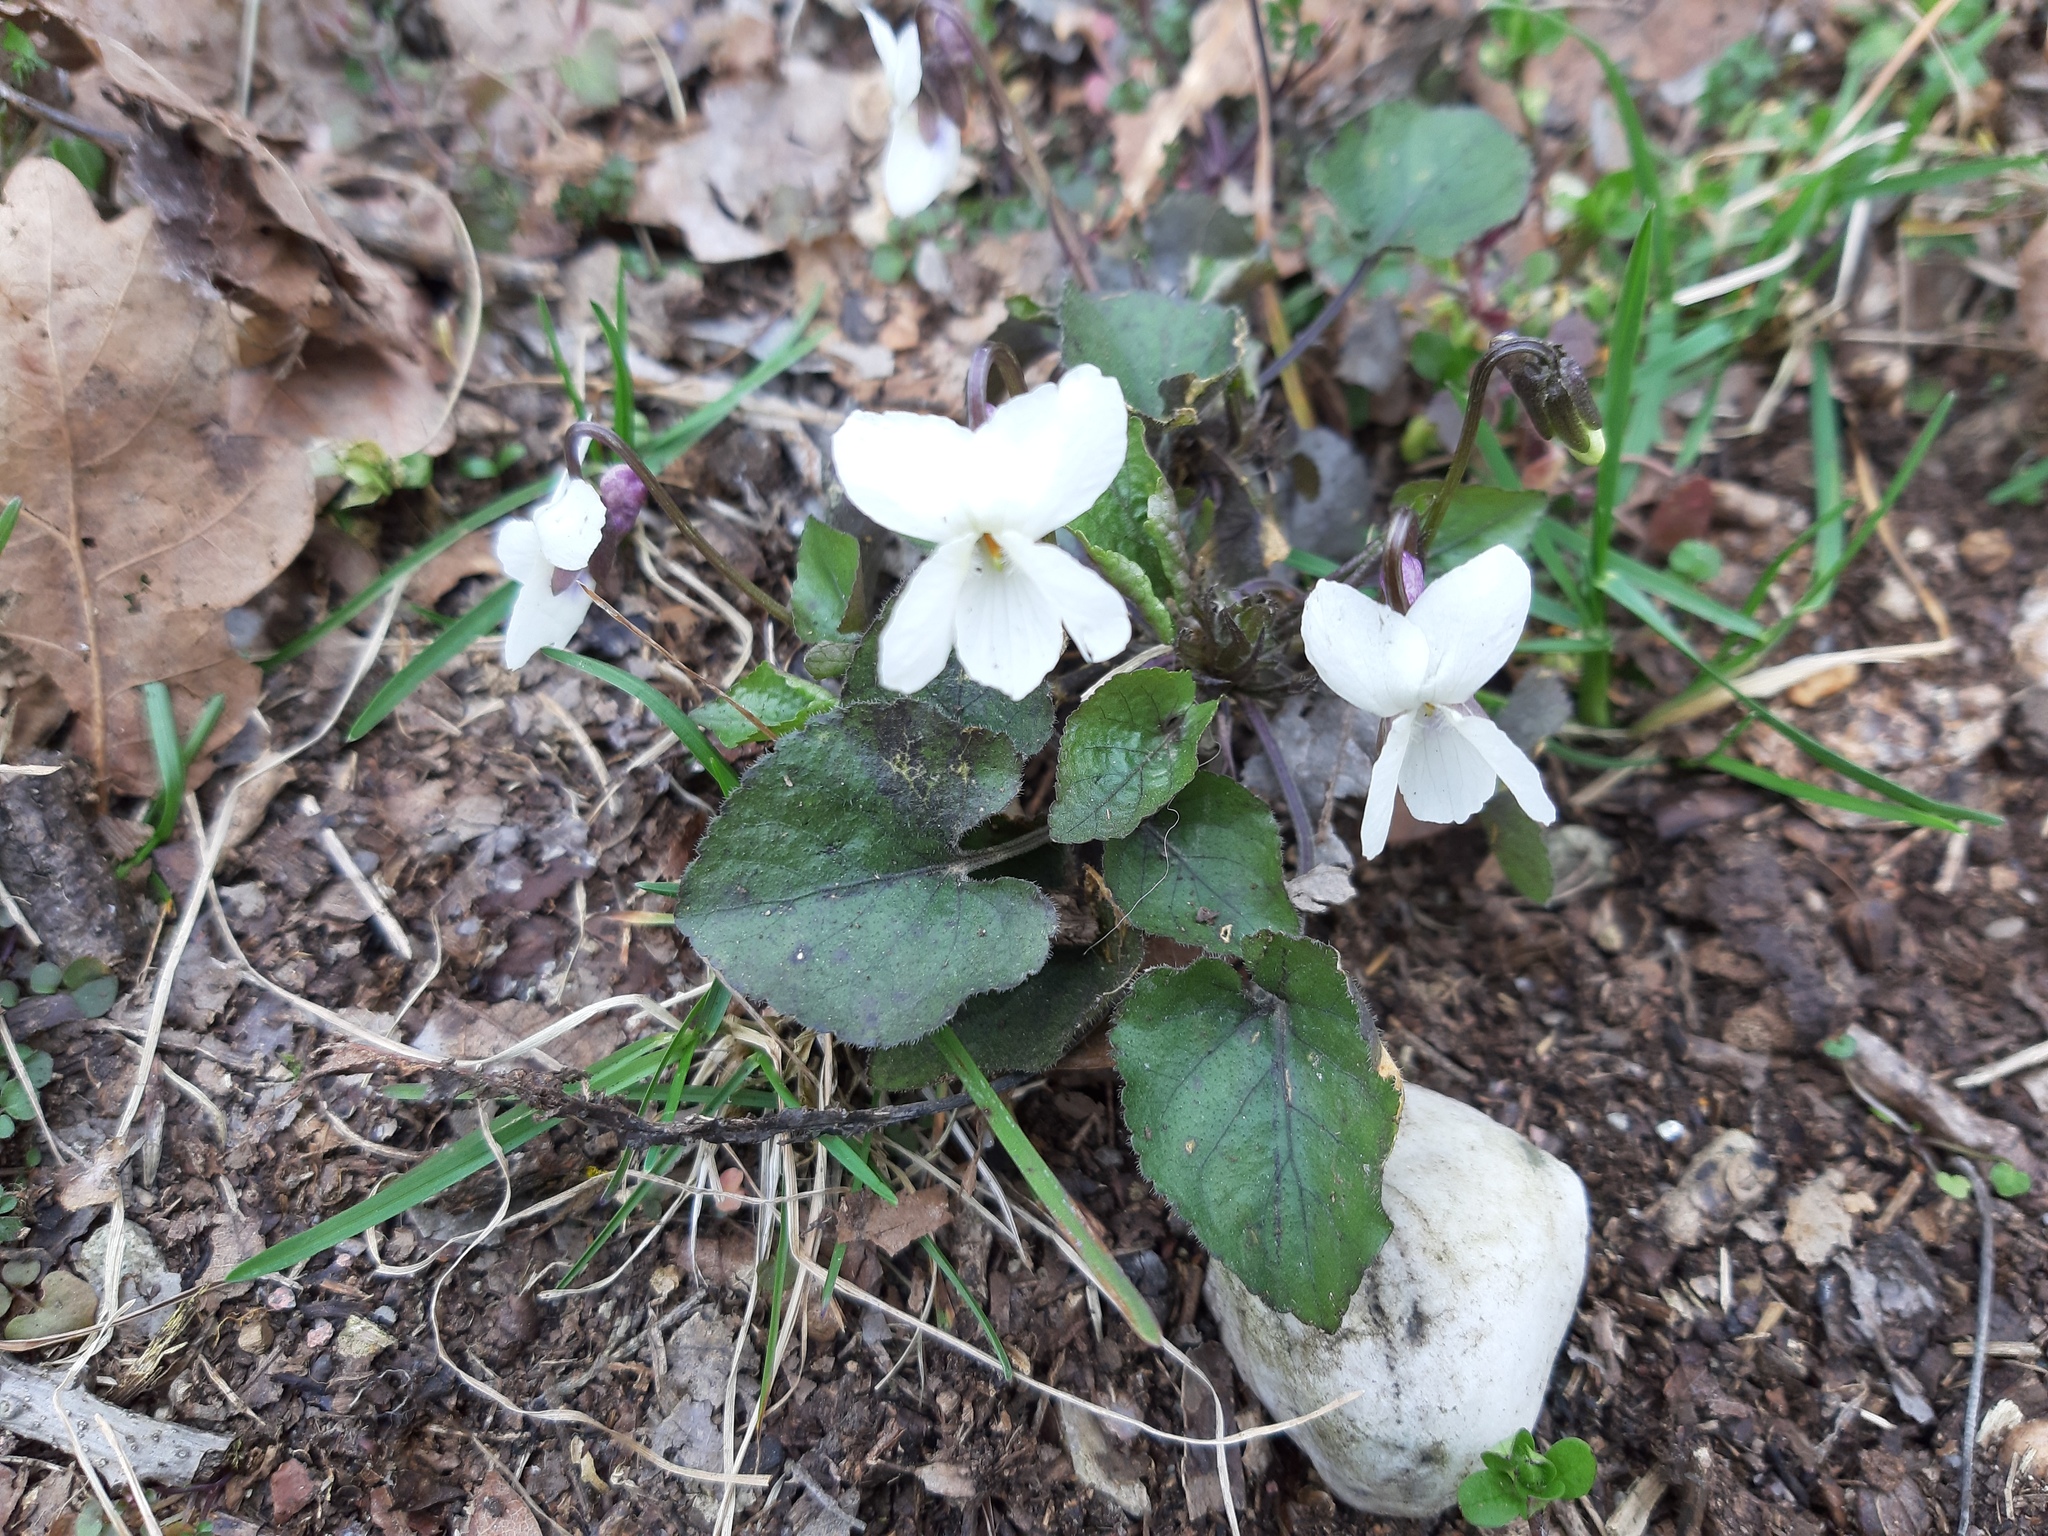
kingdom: Plantae
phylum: Tracheophyta
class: Magnoliopsida
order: Malpighiales
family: Violaceae
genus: Viola
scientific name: Viola alba
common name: White violet
